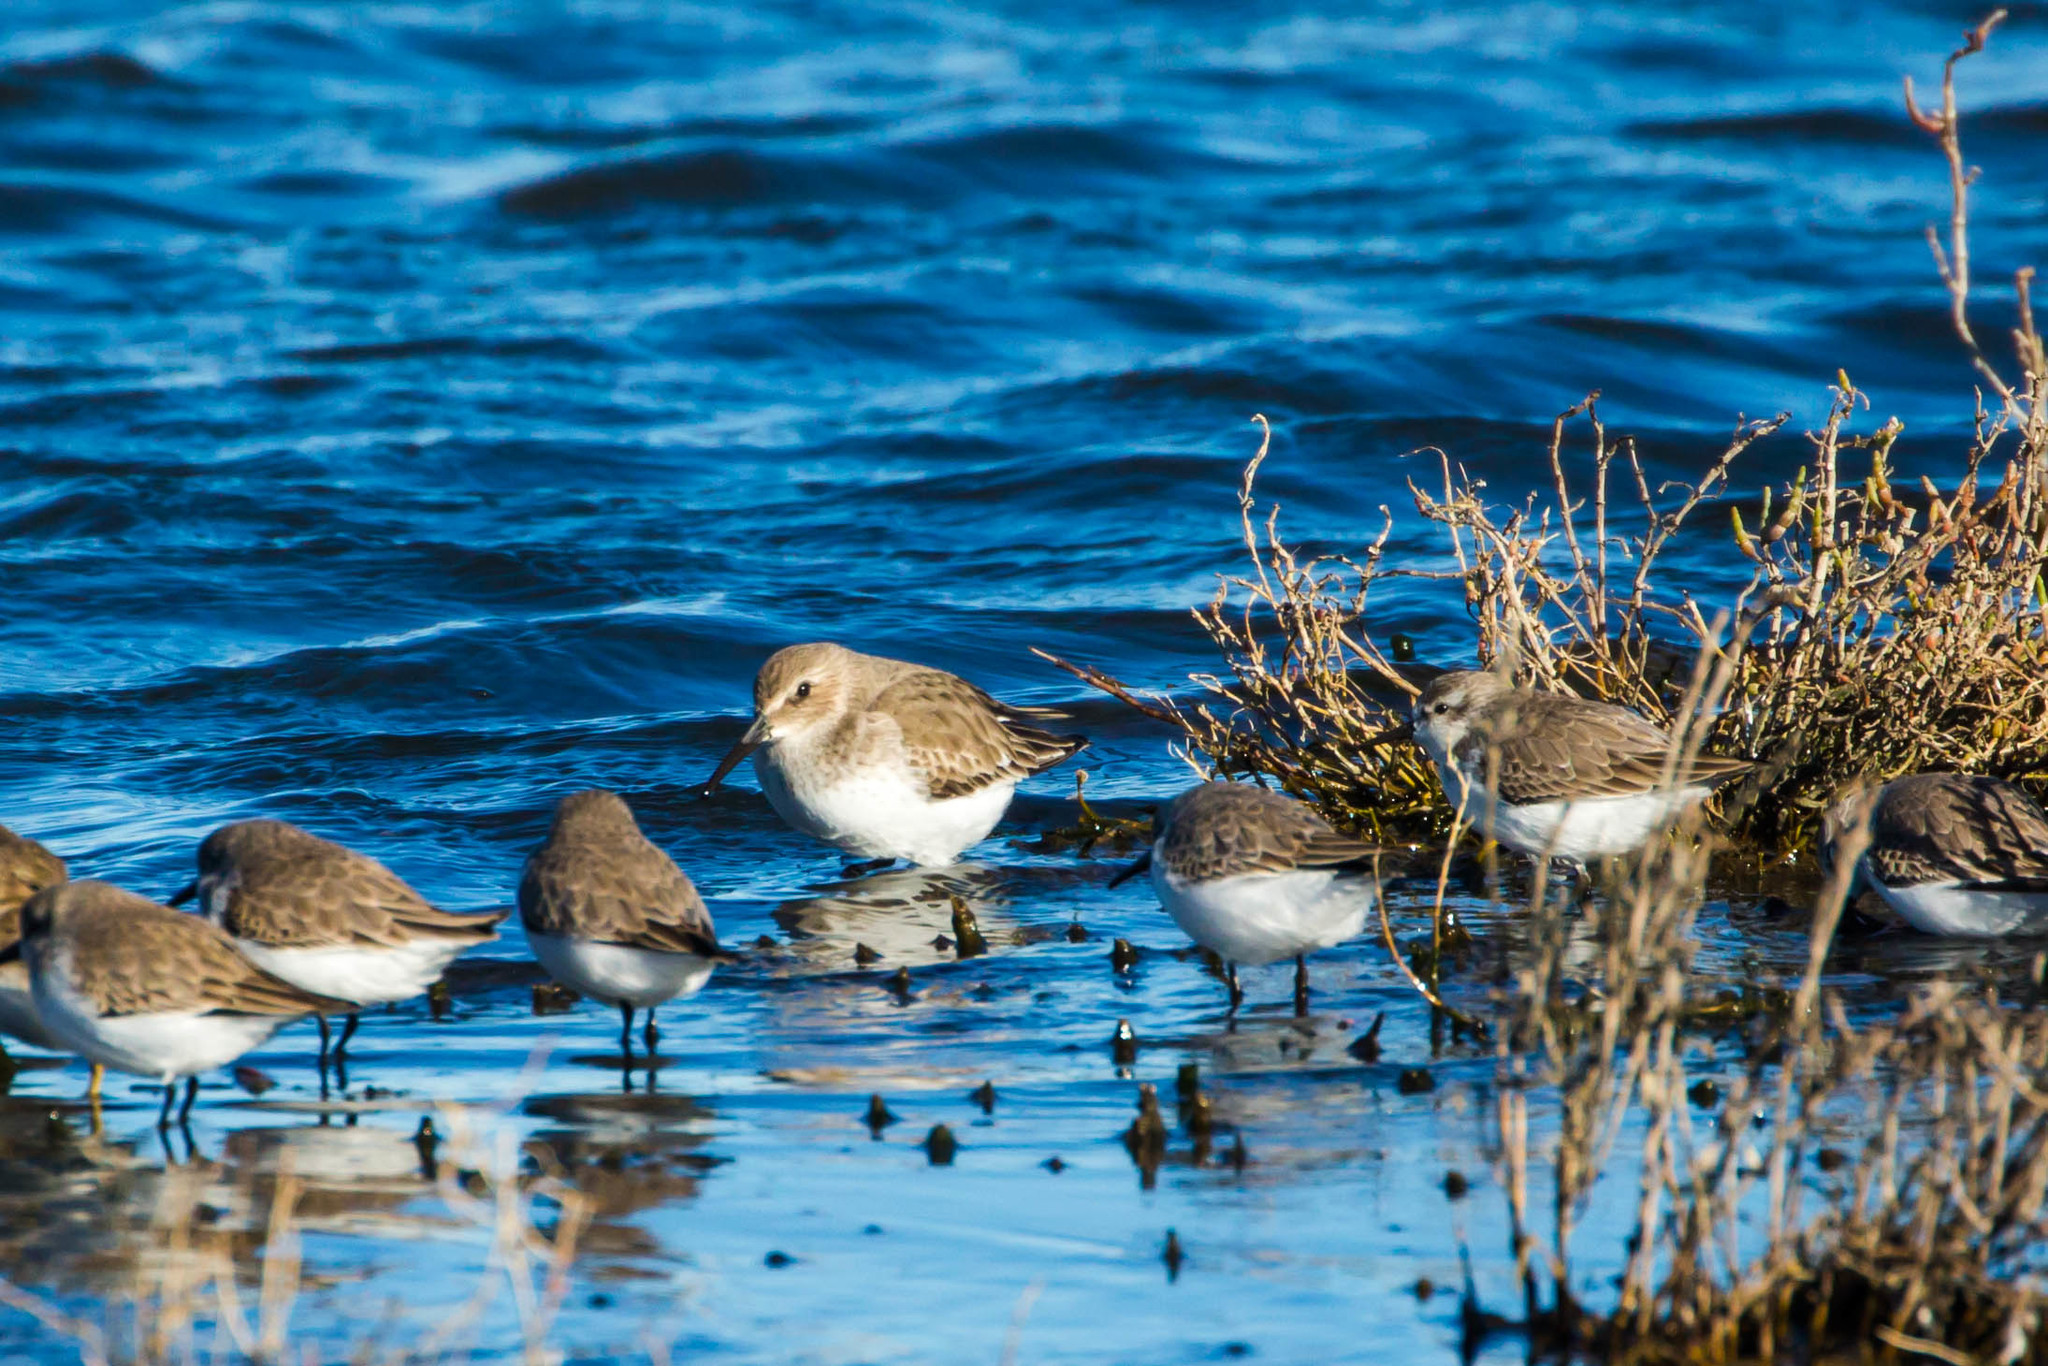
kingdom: Animalia
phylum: Chordata
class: Aves
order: Charadriiformes
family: Scolopacidae
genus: Calidris
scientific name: Calidris alpina
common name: Dunlin
